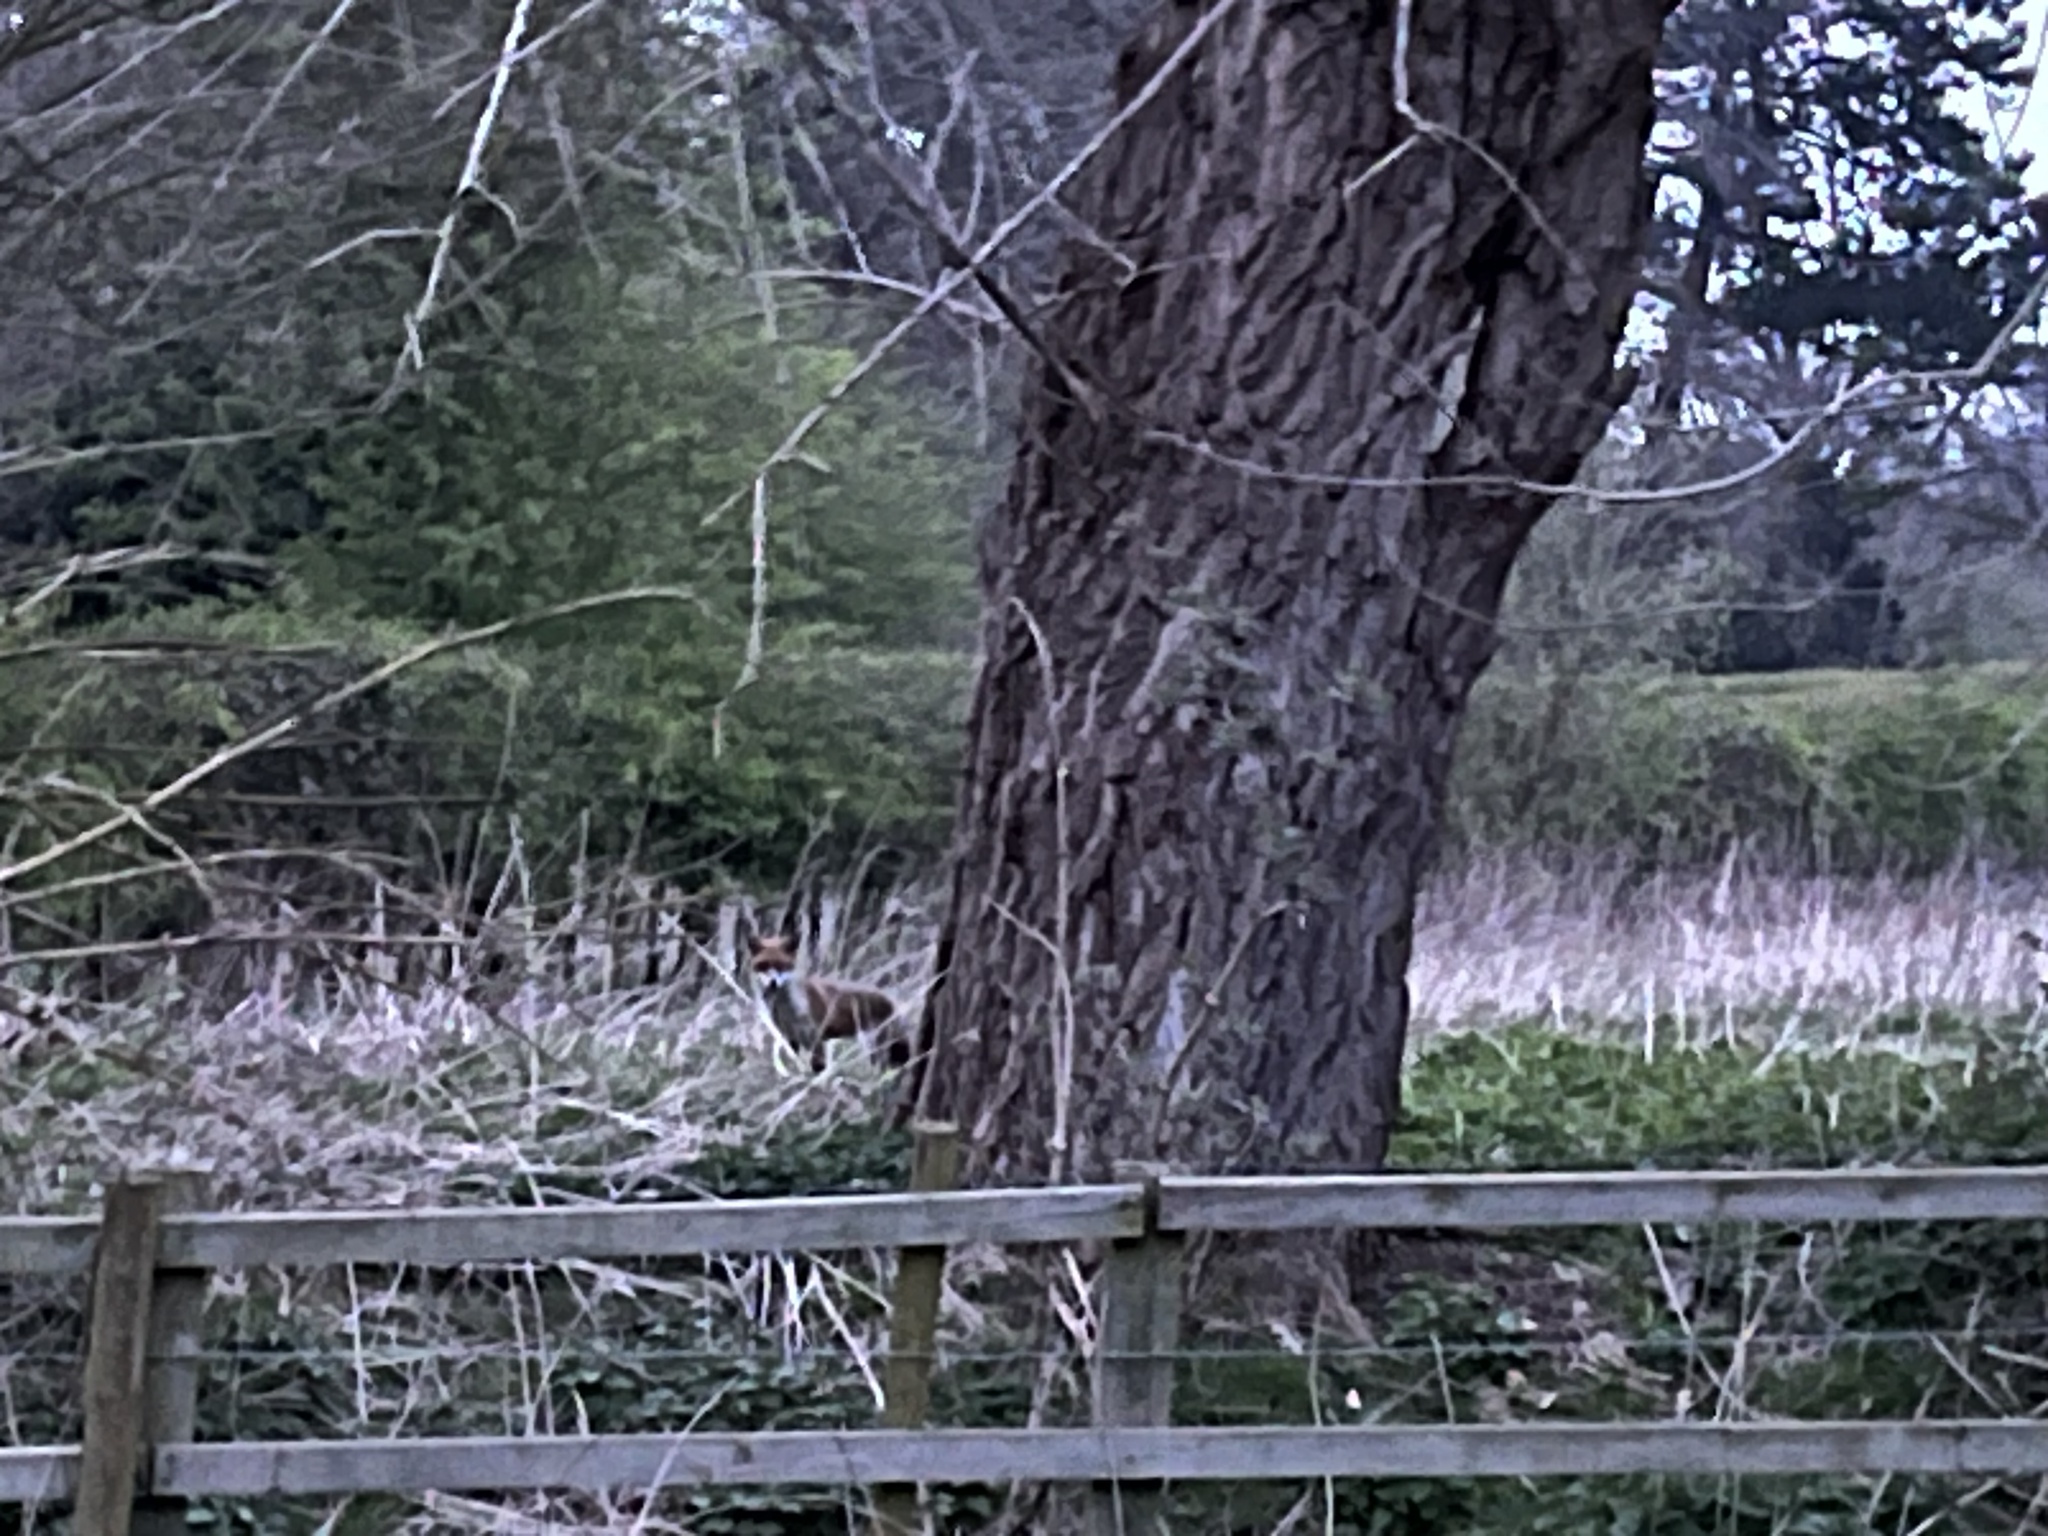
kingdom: Animalia
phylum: Chordata
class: Mammalia
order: Carnivora
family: Canidae
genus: Vulpes
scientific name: Vulpes vulpes
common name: Red fox
